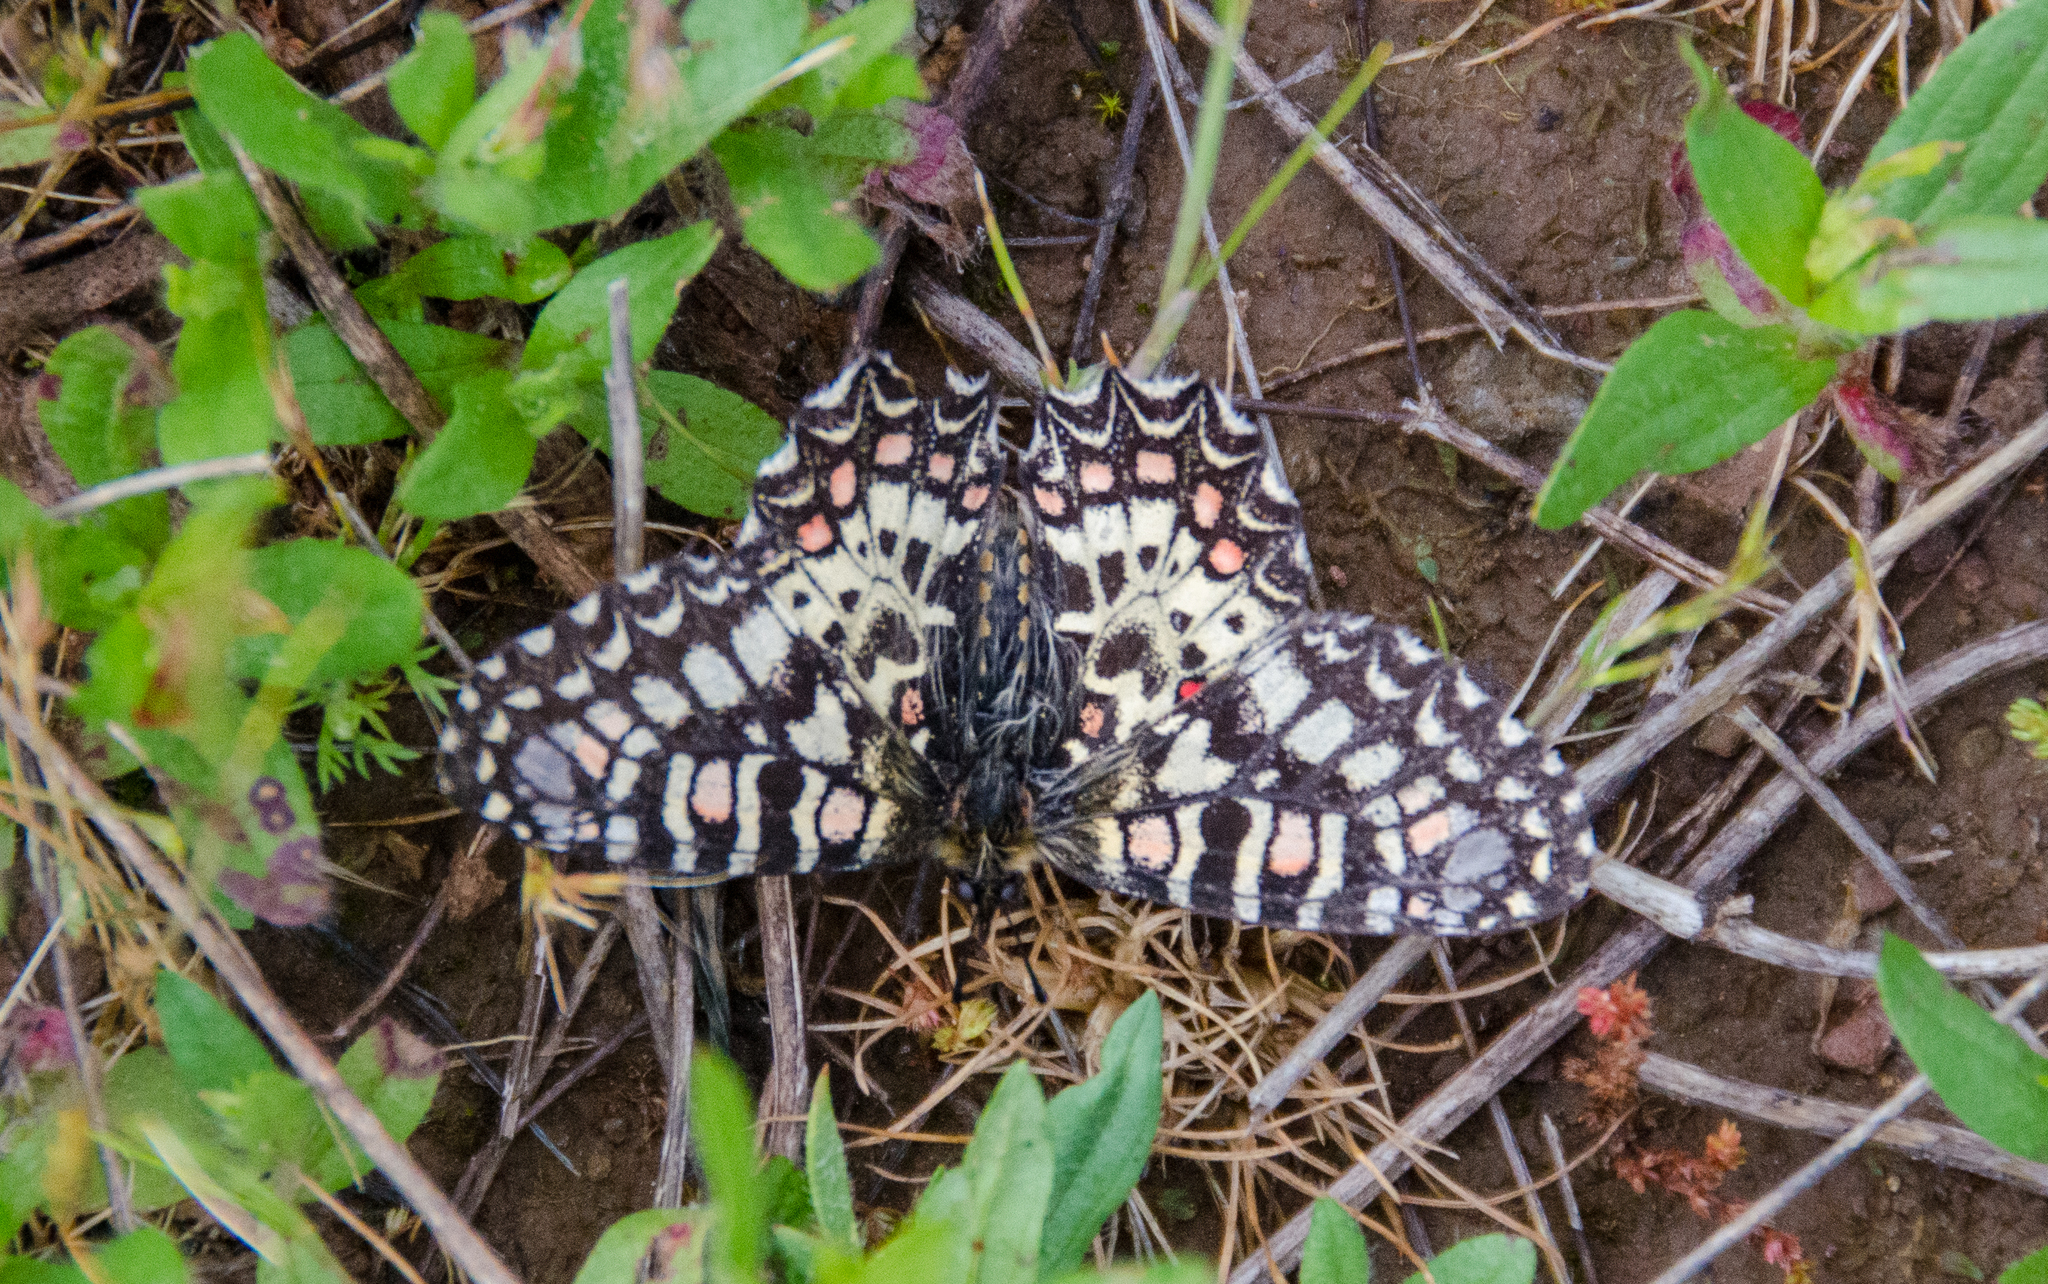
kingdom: Animalia
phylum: Arthropoda
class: Insecta
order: Lepidoptera
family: Papilionidae
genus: Zerynthia
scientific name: Zerynthia rumina
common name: Spanish festoon
